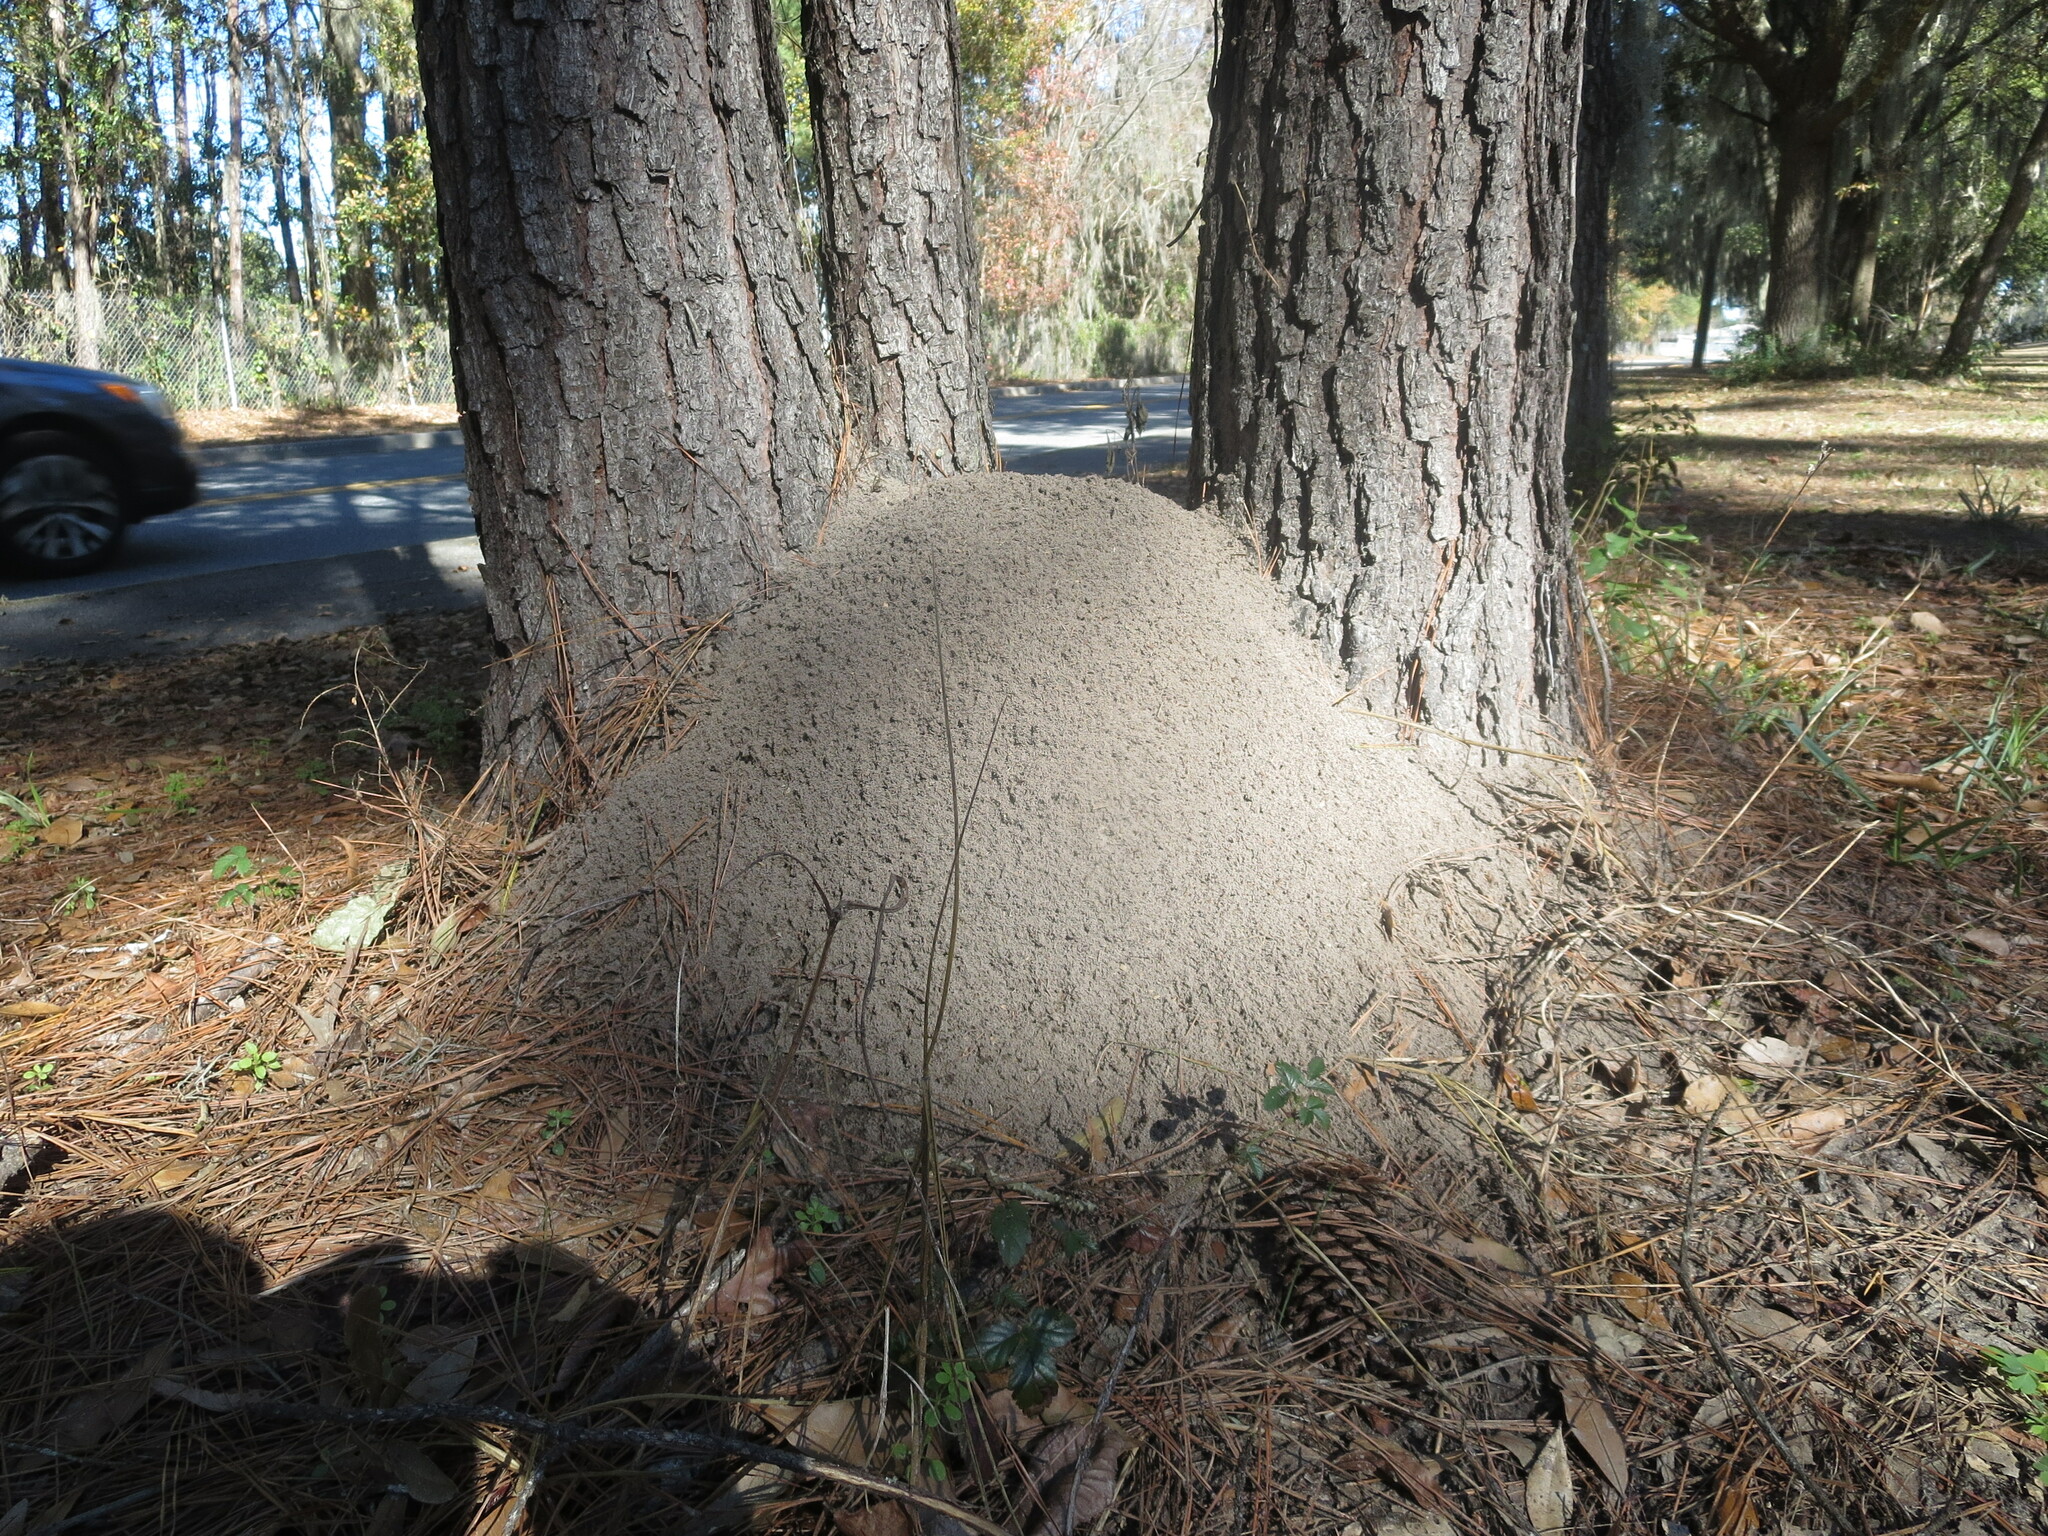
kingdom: Animalia
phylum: Arthropoda
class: Insecta
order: Hymenoptera
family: Formicidae
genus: Solenopsis
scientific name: Solenopsis invicta
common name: Red imported fire ant
